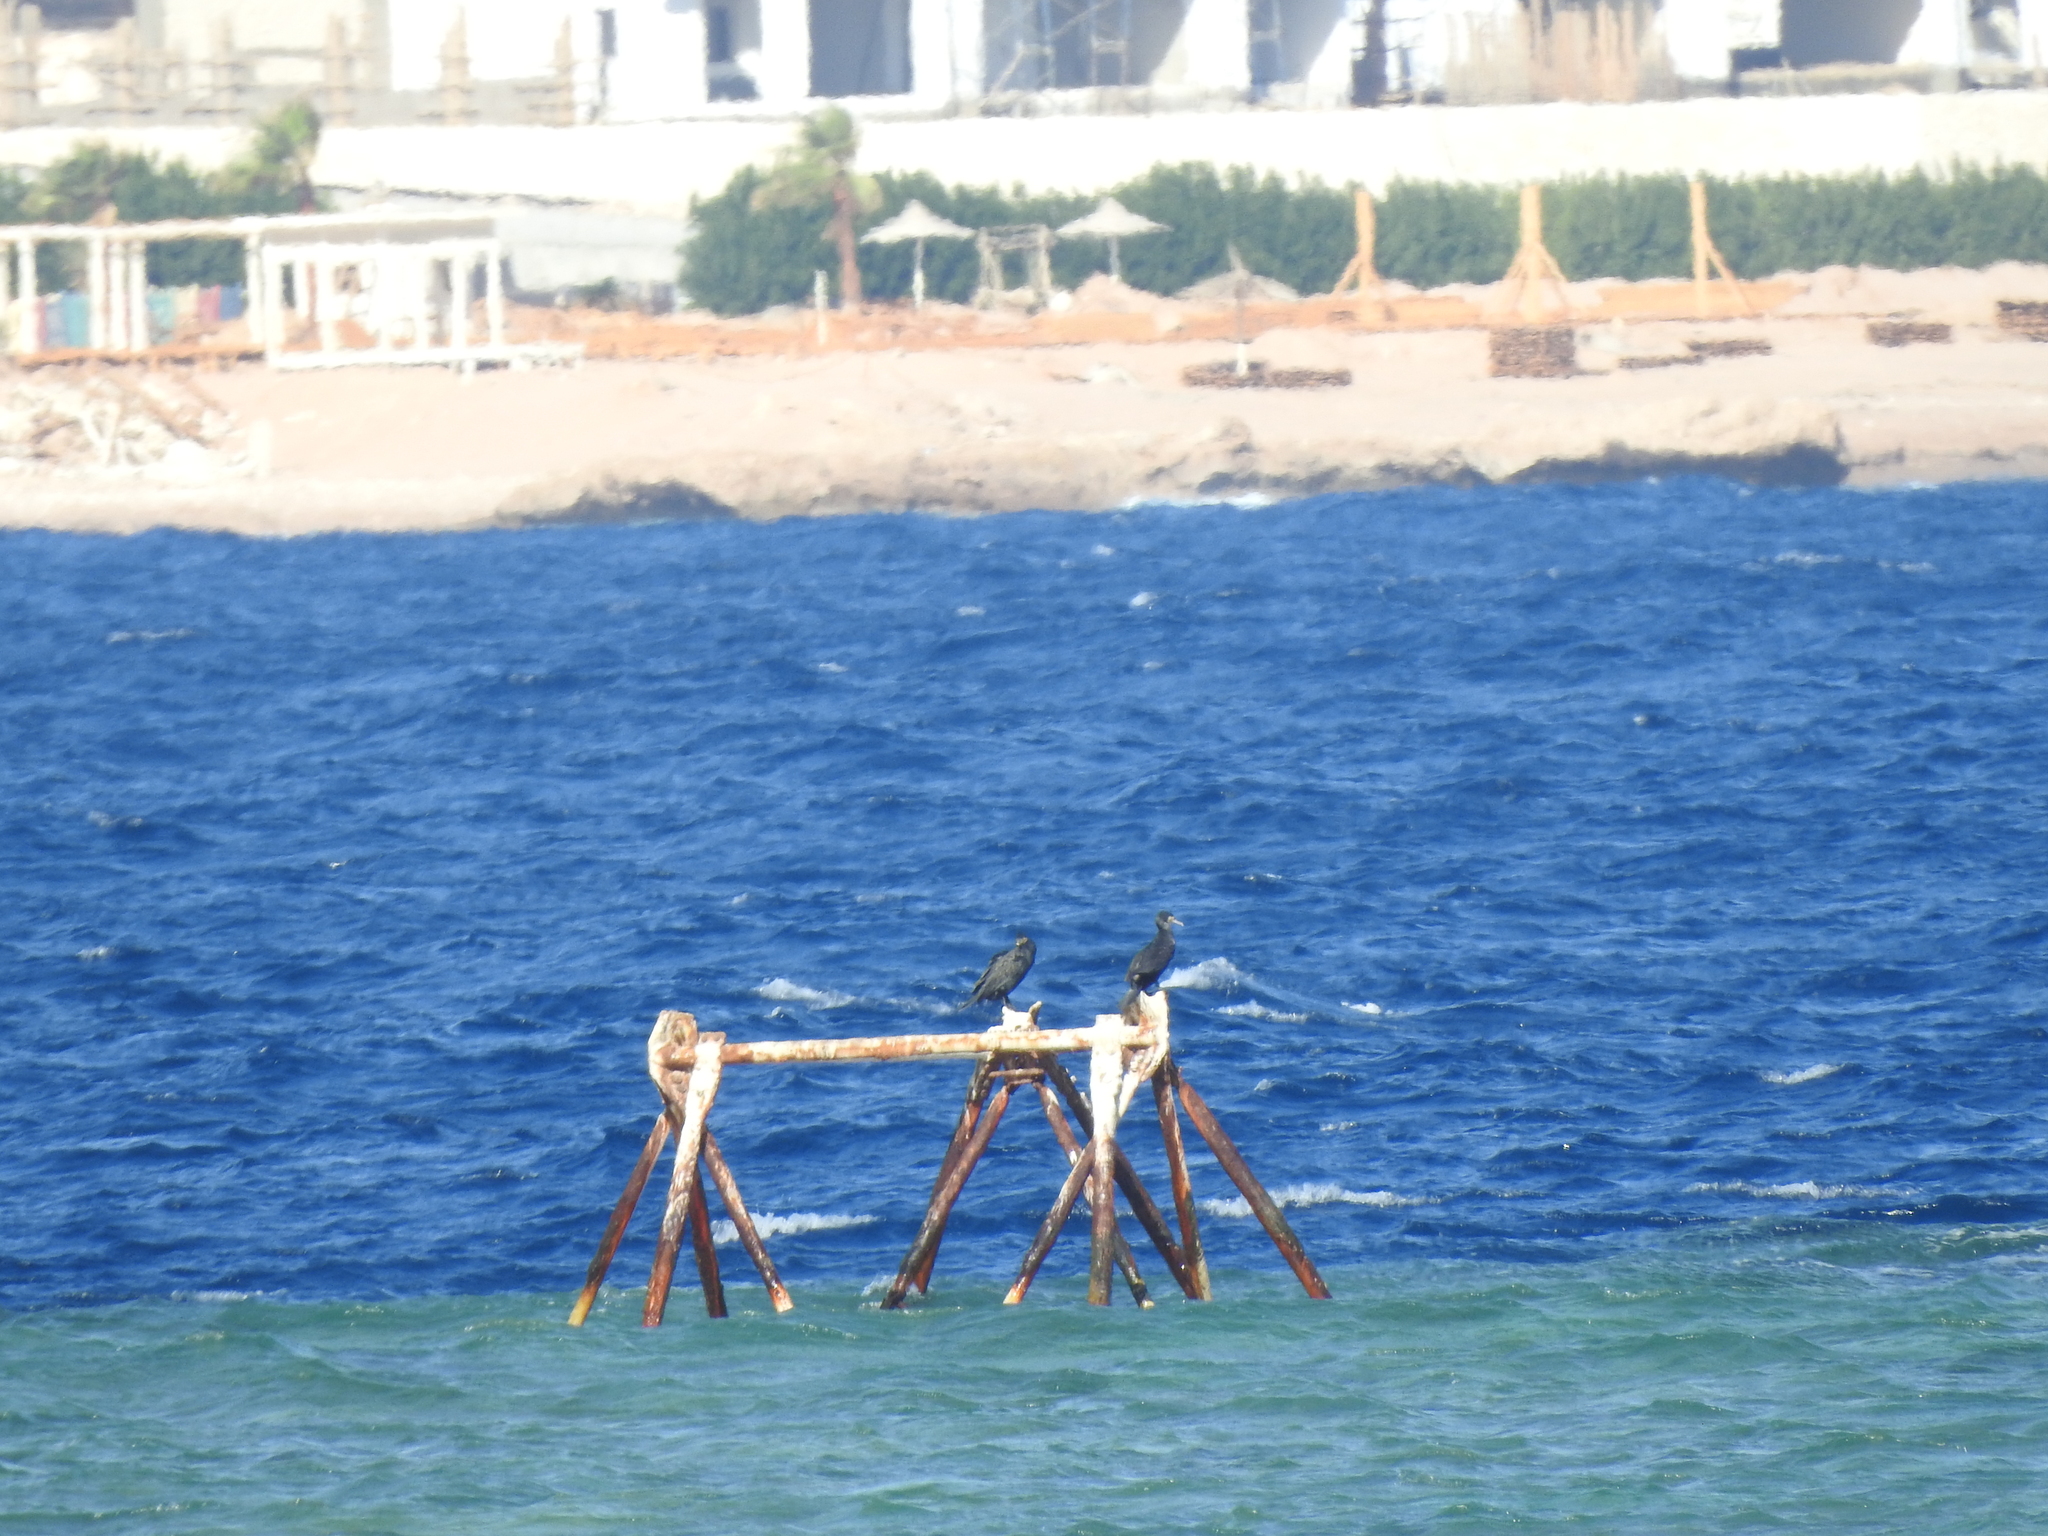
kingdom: Animalia
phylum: Chordata
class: Aves
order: Suliformes
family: Phalacrocoracidae
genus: Phalacrocorax
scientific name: Phalacrocorax carbo
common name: Great cormorant
